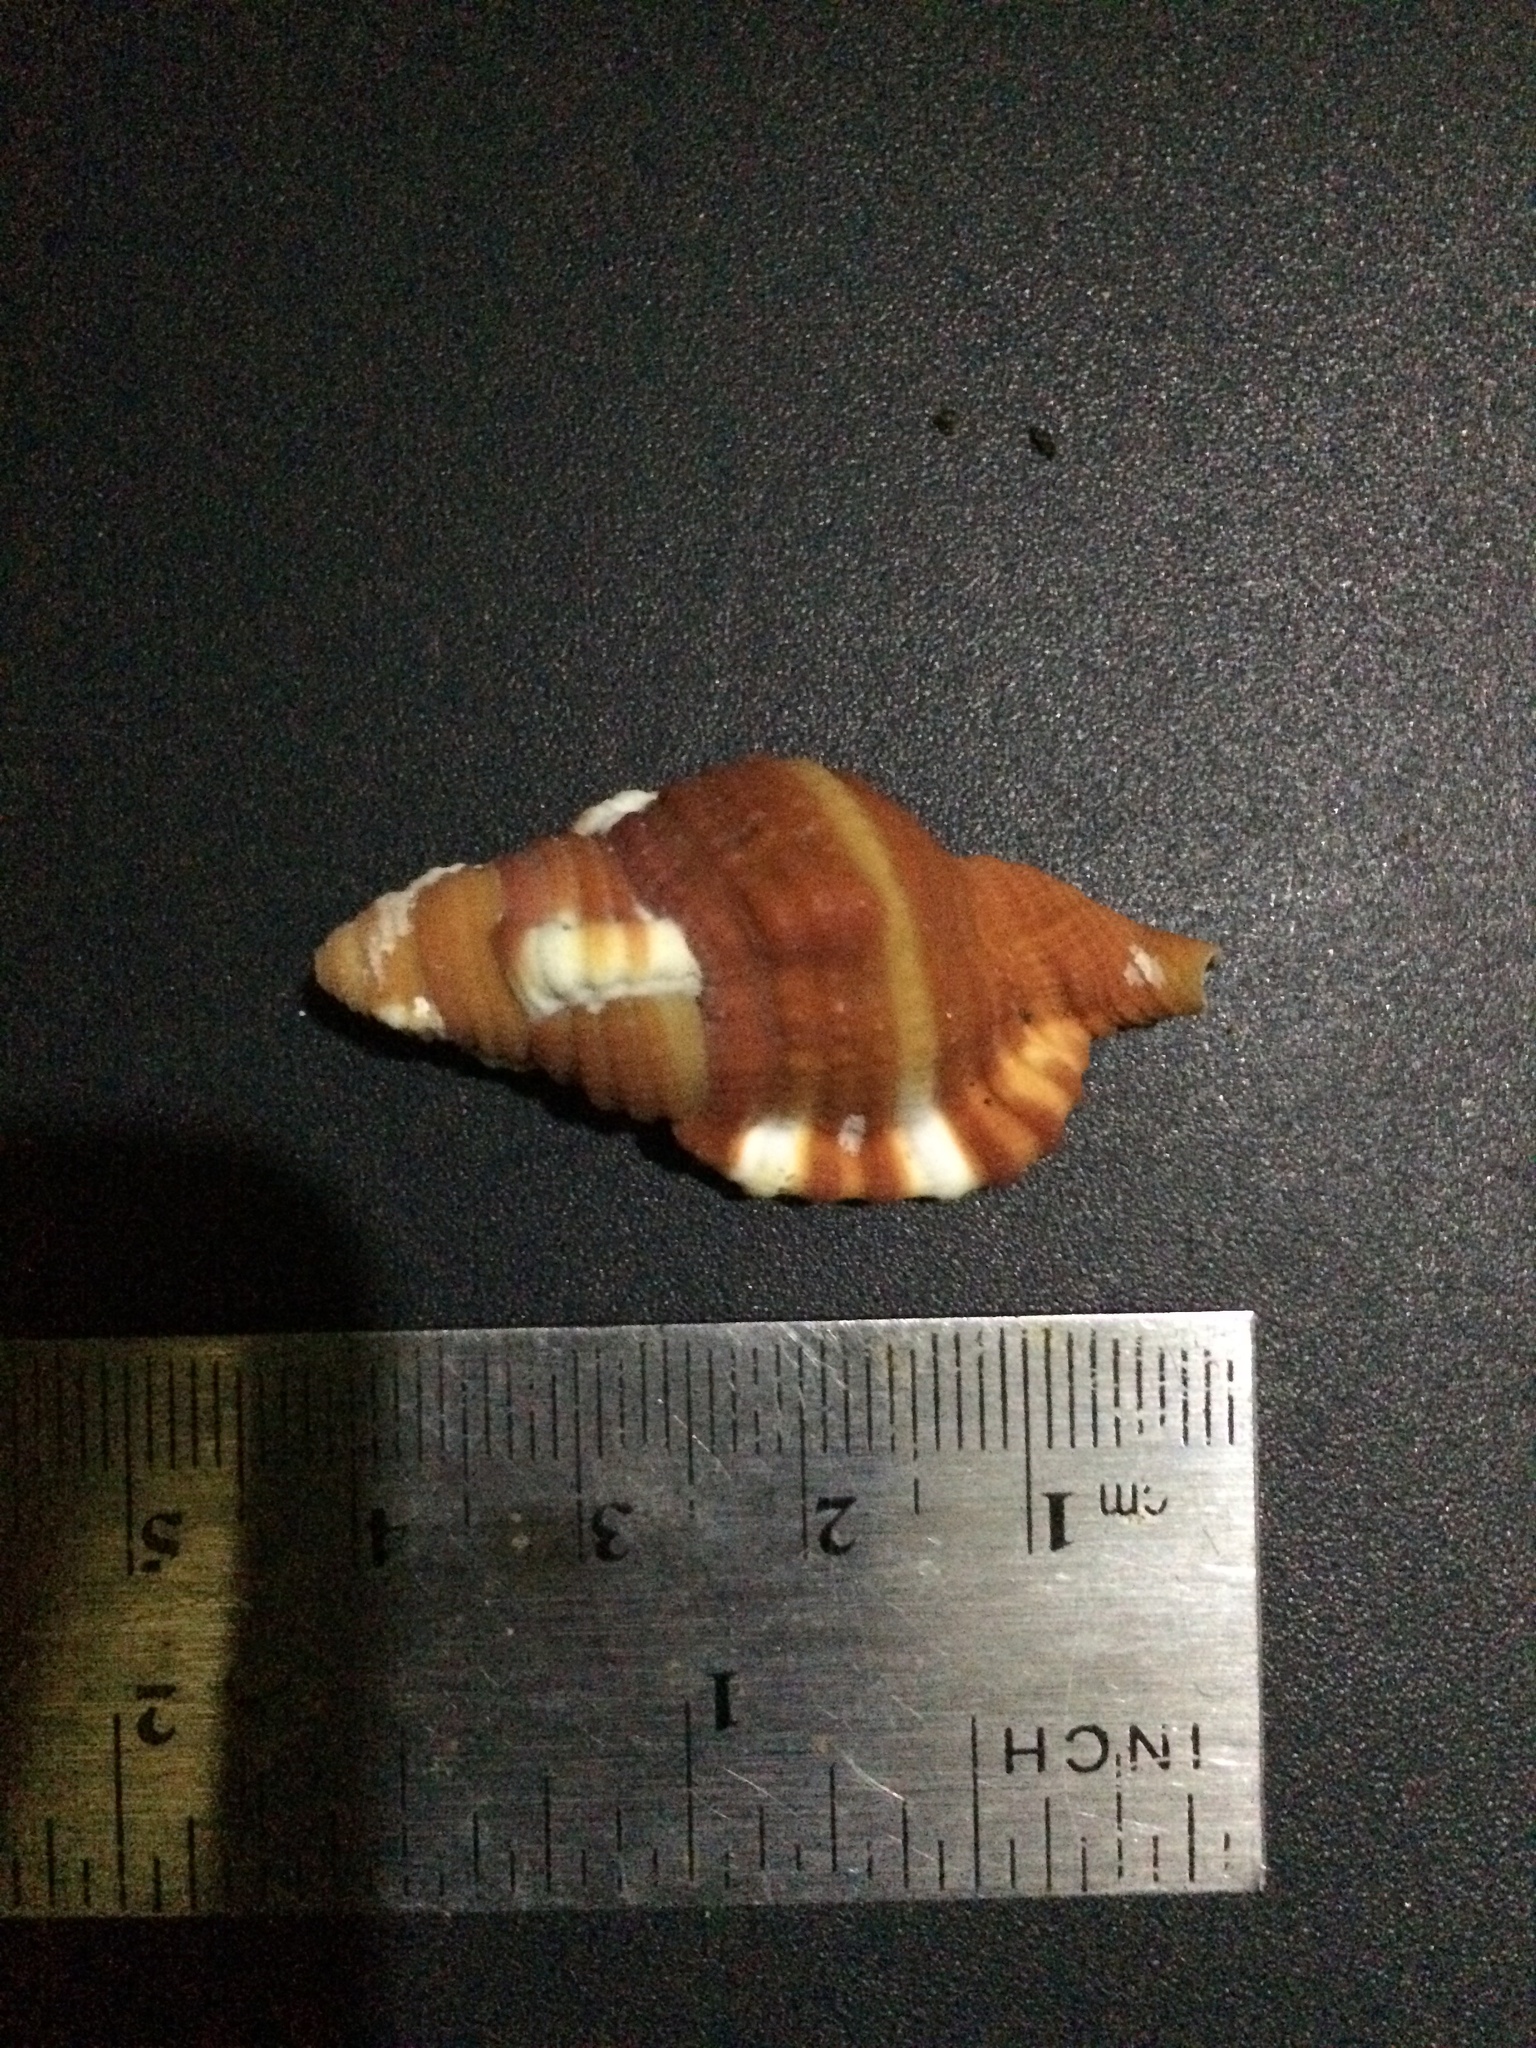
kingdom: Animalia
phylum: Mollusca
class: Gastropoda
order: Littorinimorpha
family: Cymatiidae
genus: Septa
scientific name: Septa rubecula
